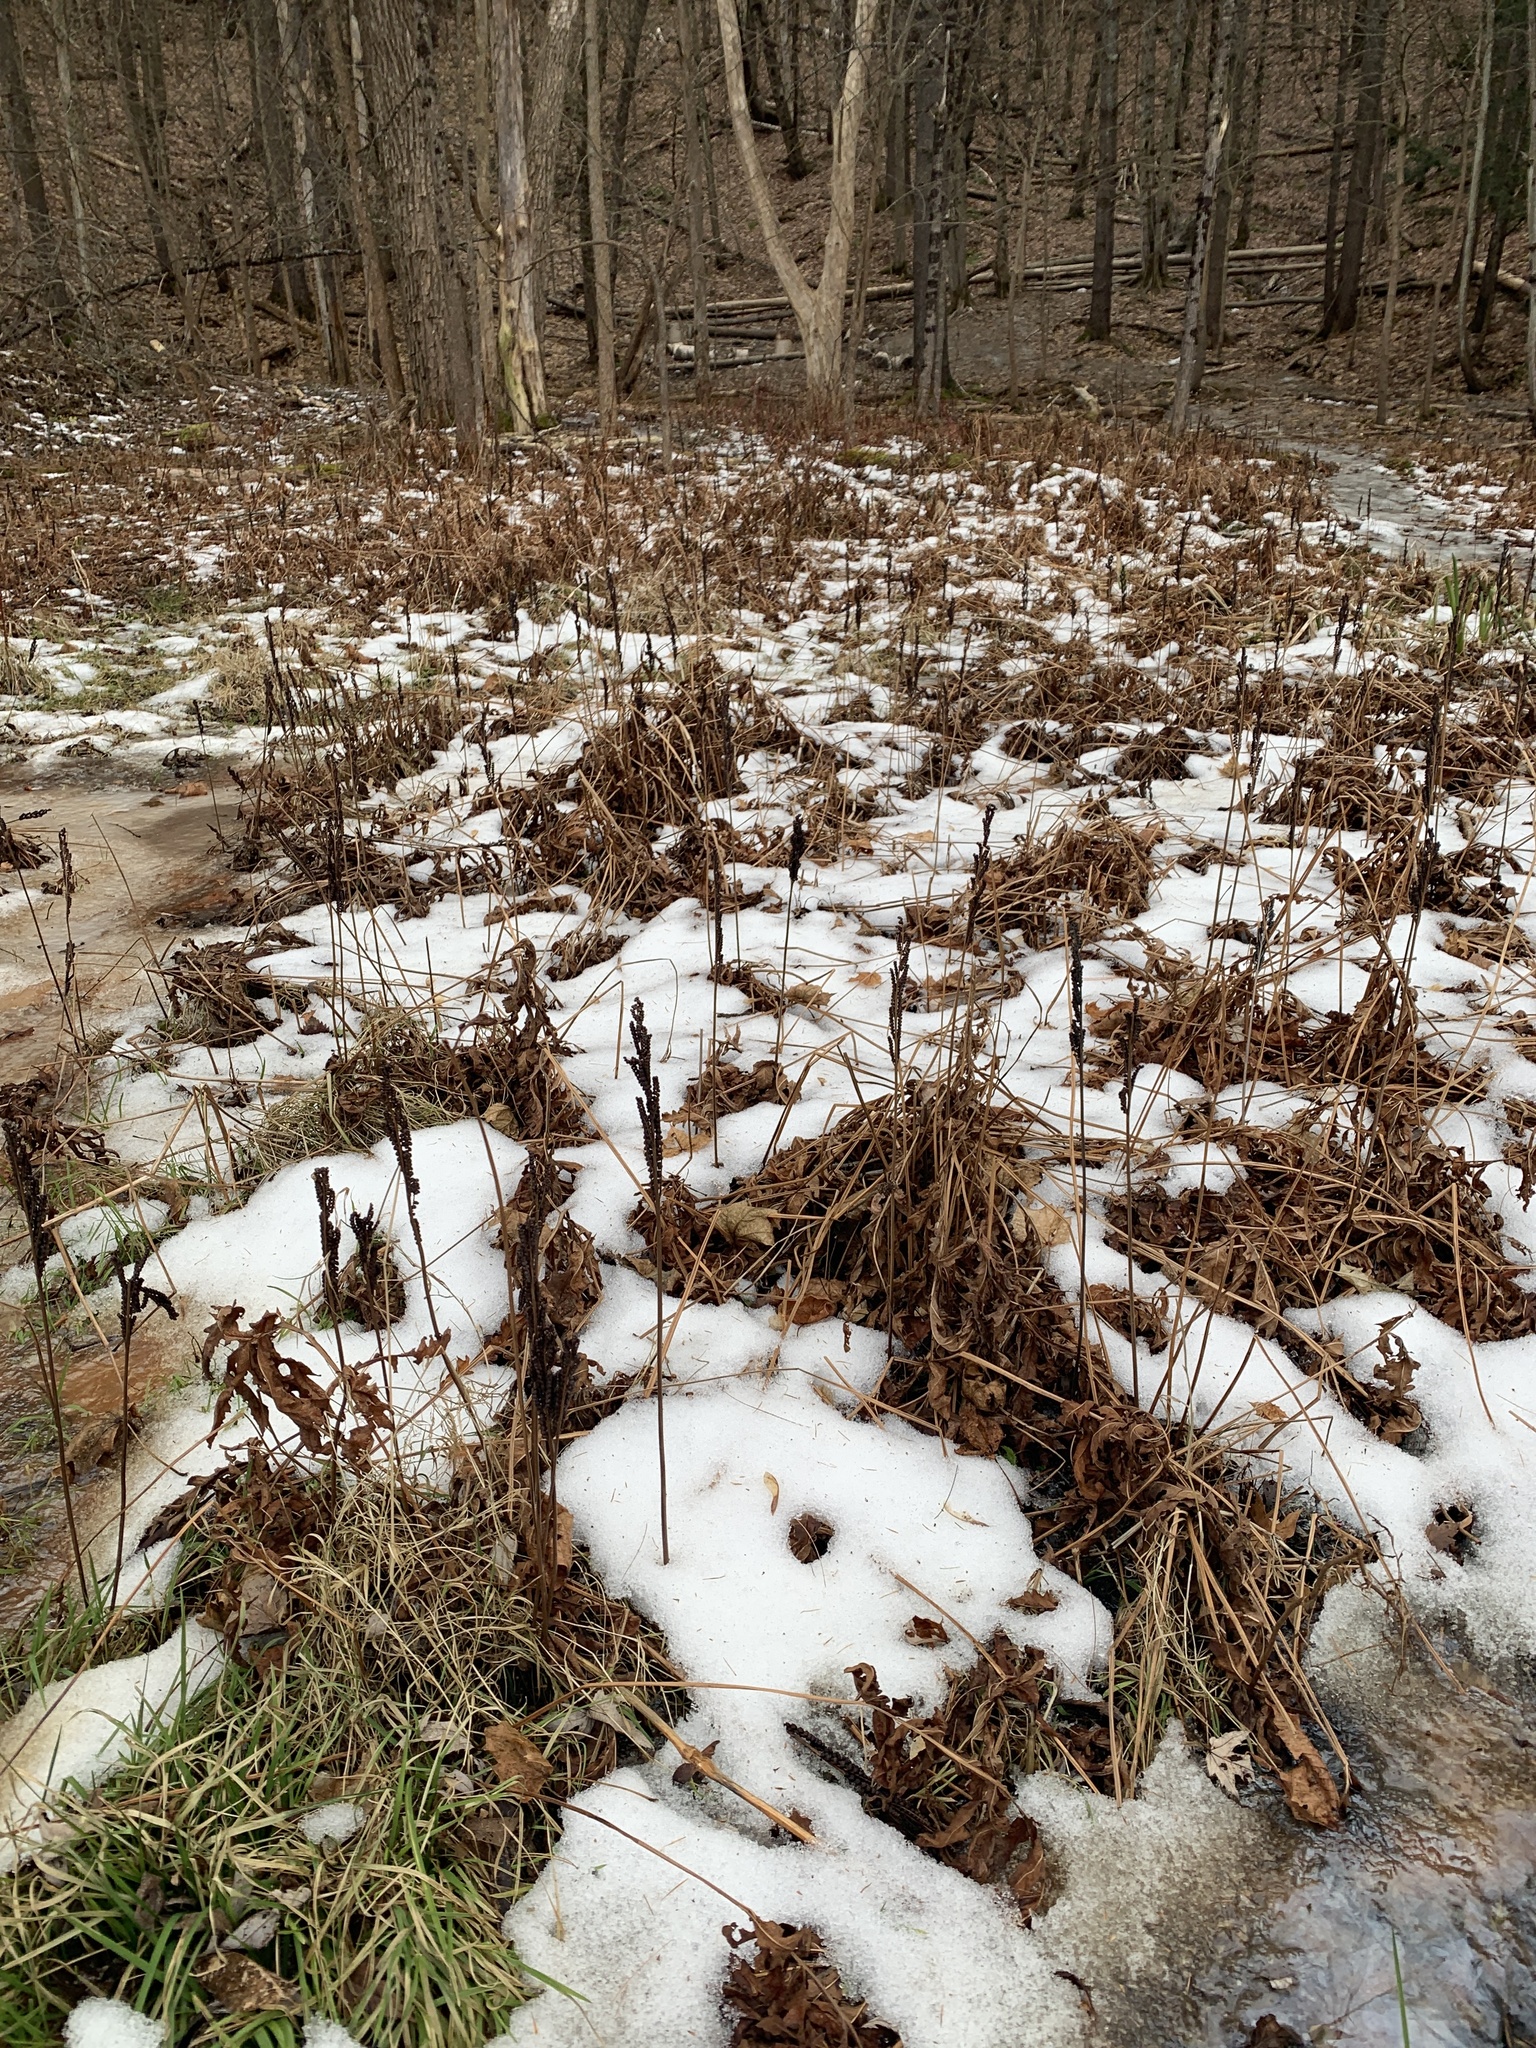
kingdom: Plantae
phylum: Tracheophyta
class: Polypodiopsida
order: Polypodiales
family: Onocleaceae
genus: Onoclea
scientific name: Onoclea sensibilis
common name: Sensitive fern
